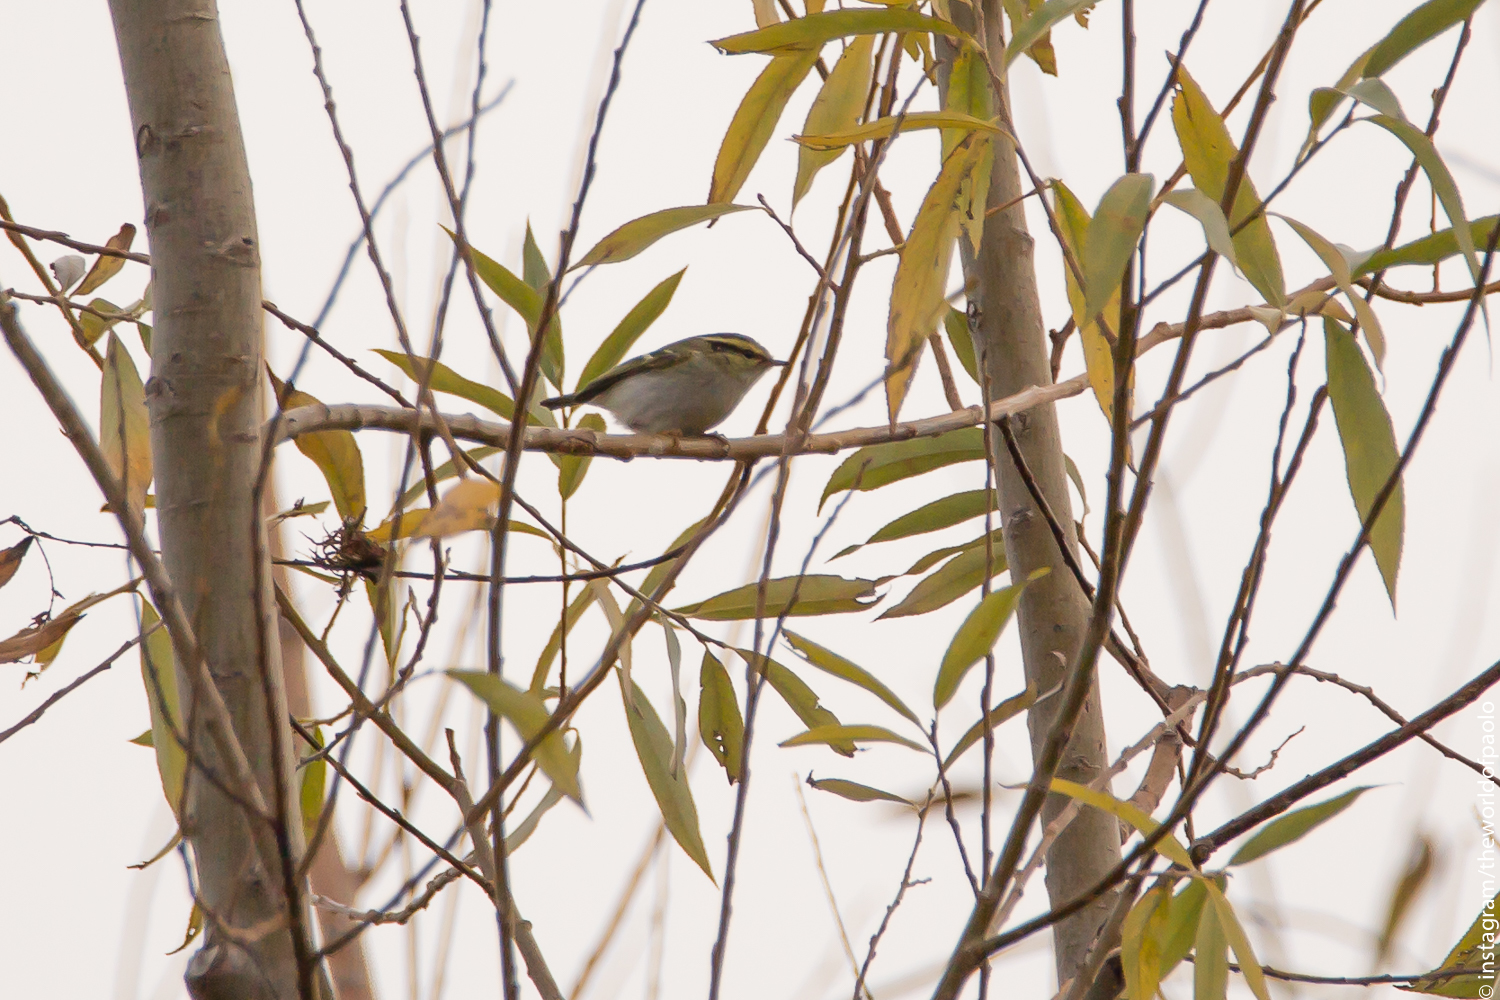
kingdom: Animalia
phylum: Chordata
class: Aves
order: Passeriformes
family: Phylloscopidae
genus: Phylloscopus
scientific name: Phylloscopus proregulus
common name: Pallas's leaf warbler
